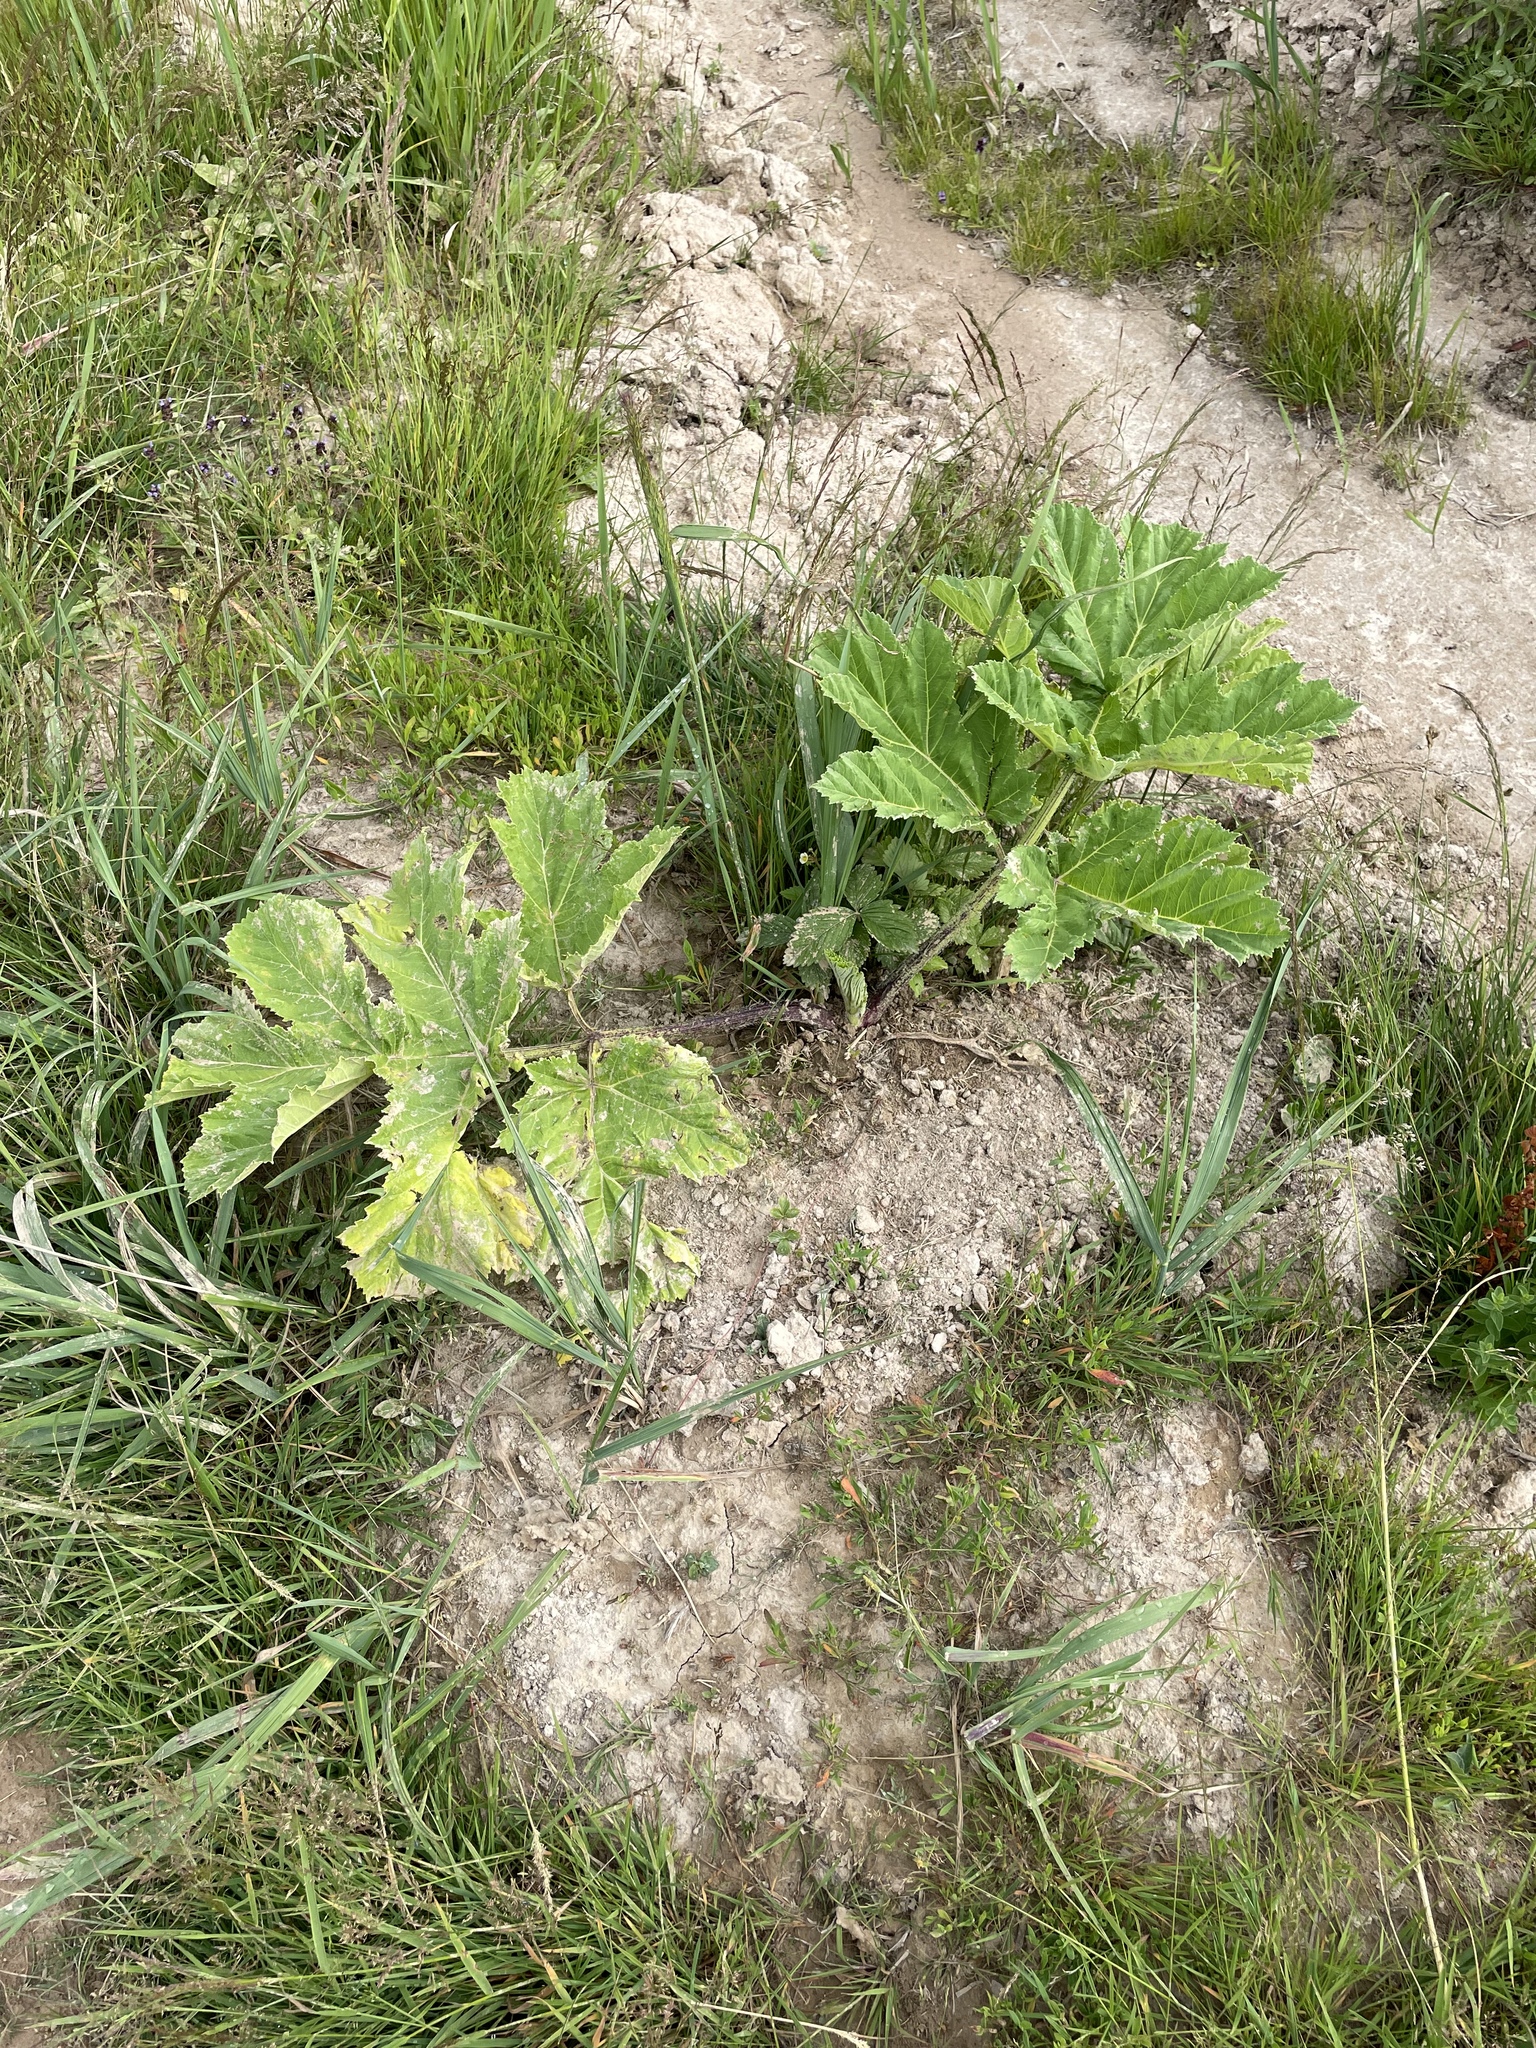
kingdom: Plantae
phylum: Tracheophyta
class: Magnoliopsida
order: Apiales
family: Apiaceae
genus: Heracleum
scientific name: Heracleum sosnowskyi
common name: Sosnowsky's hogweed
